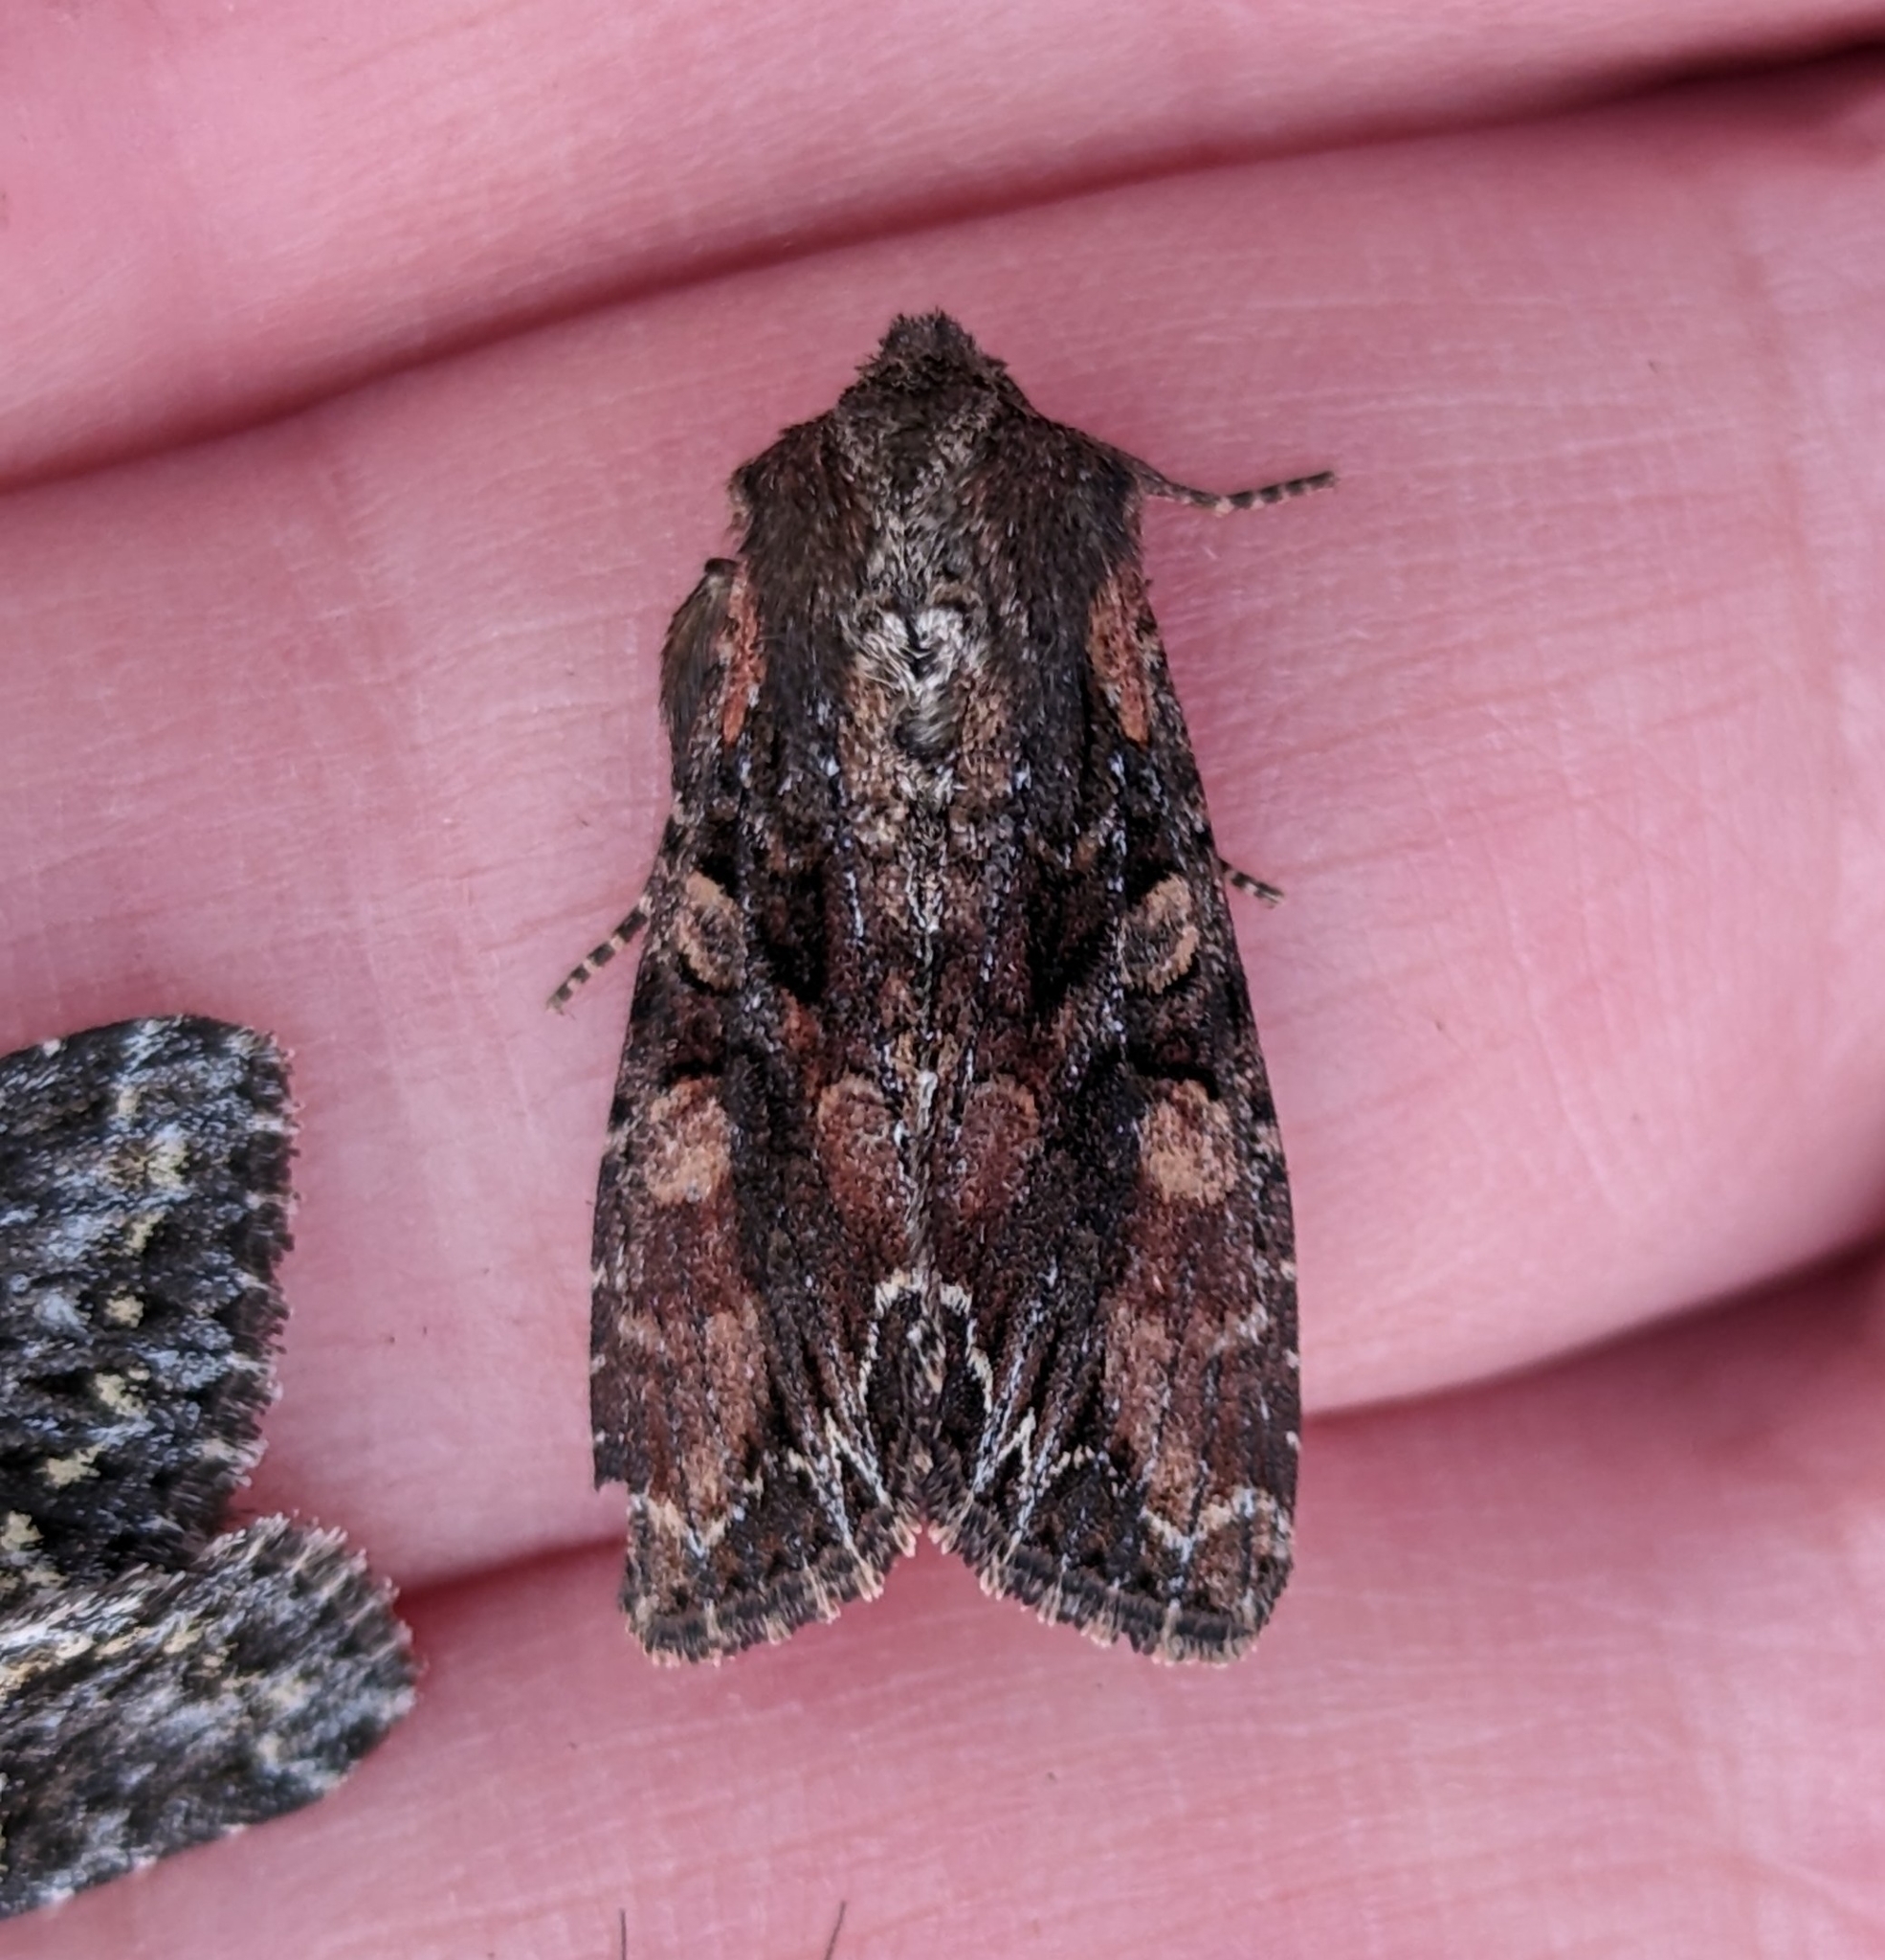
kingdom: Animalia
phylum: Arthropoda
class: Insecta
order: Lepidoptera
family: Noctuidae
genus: Lacanobia
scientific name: Lacanobia nevadae
